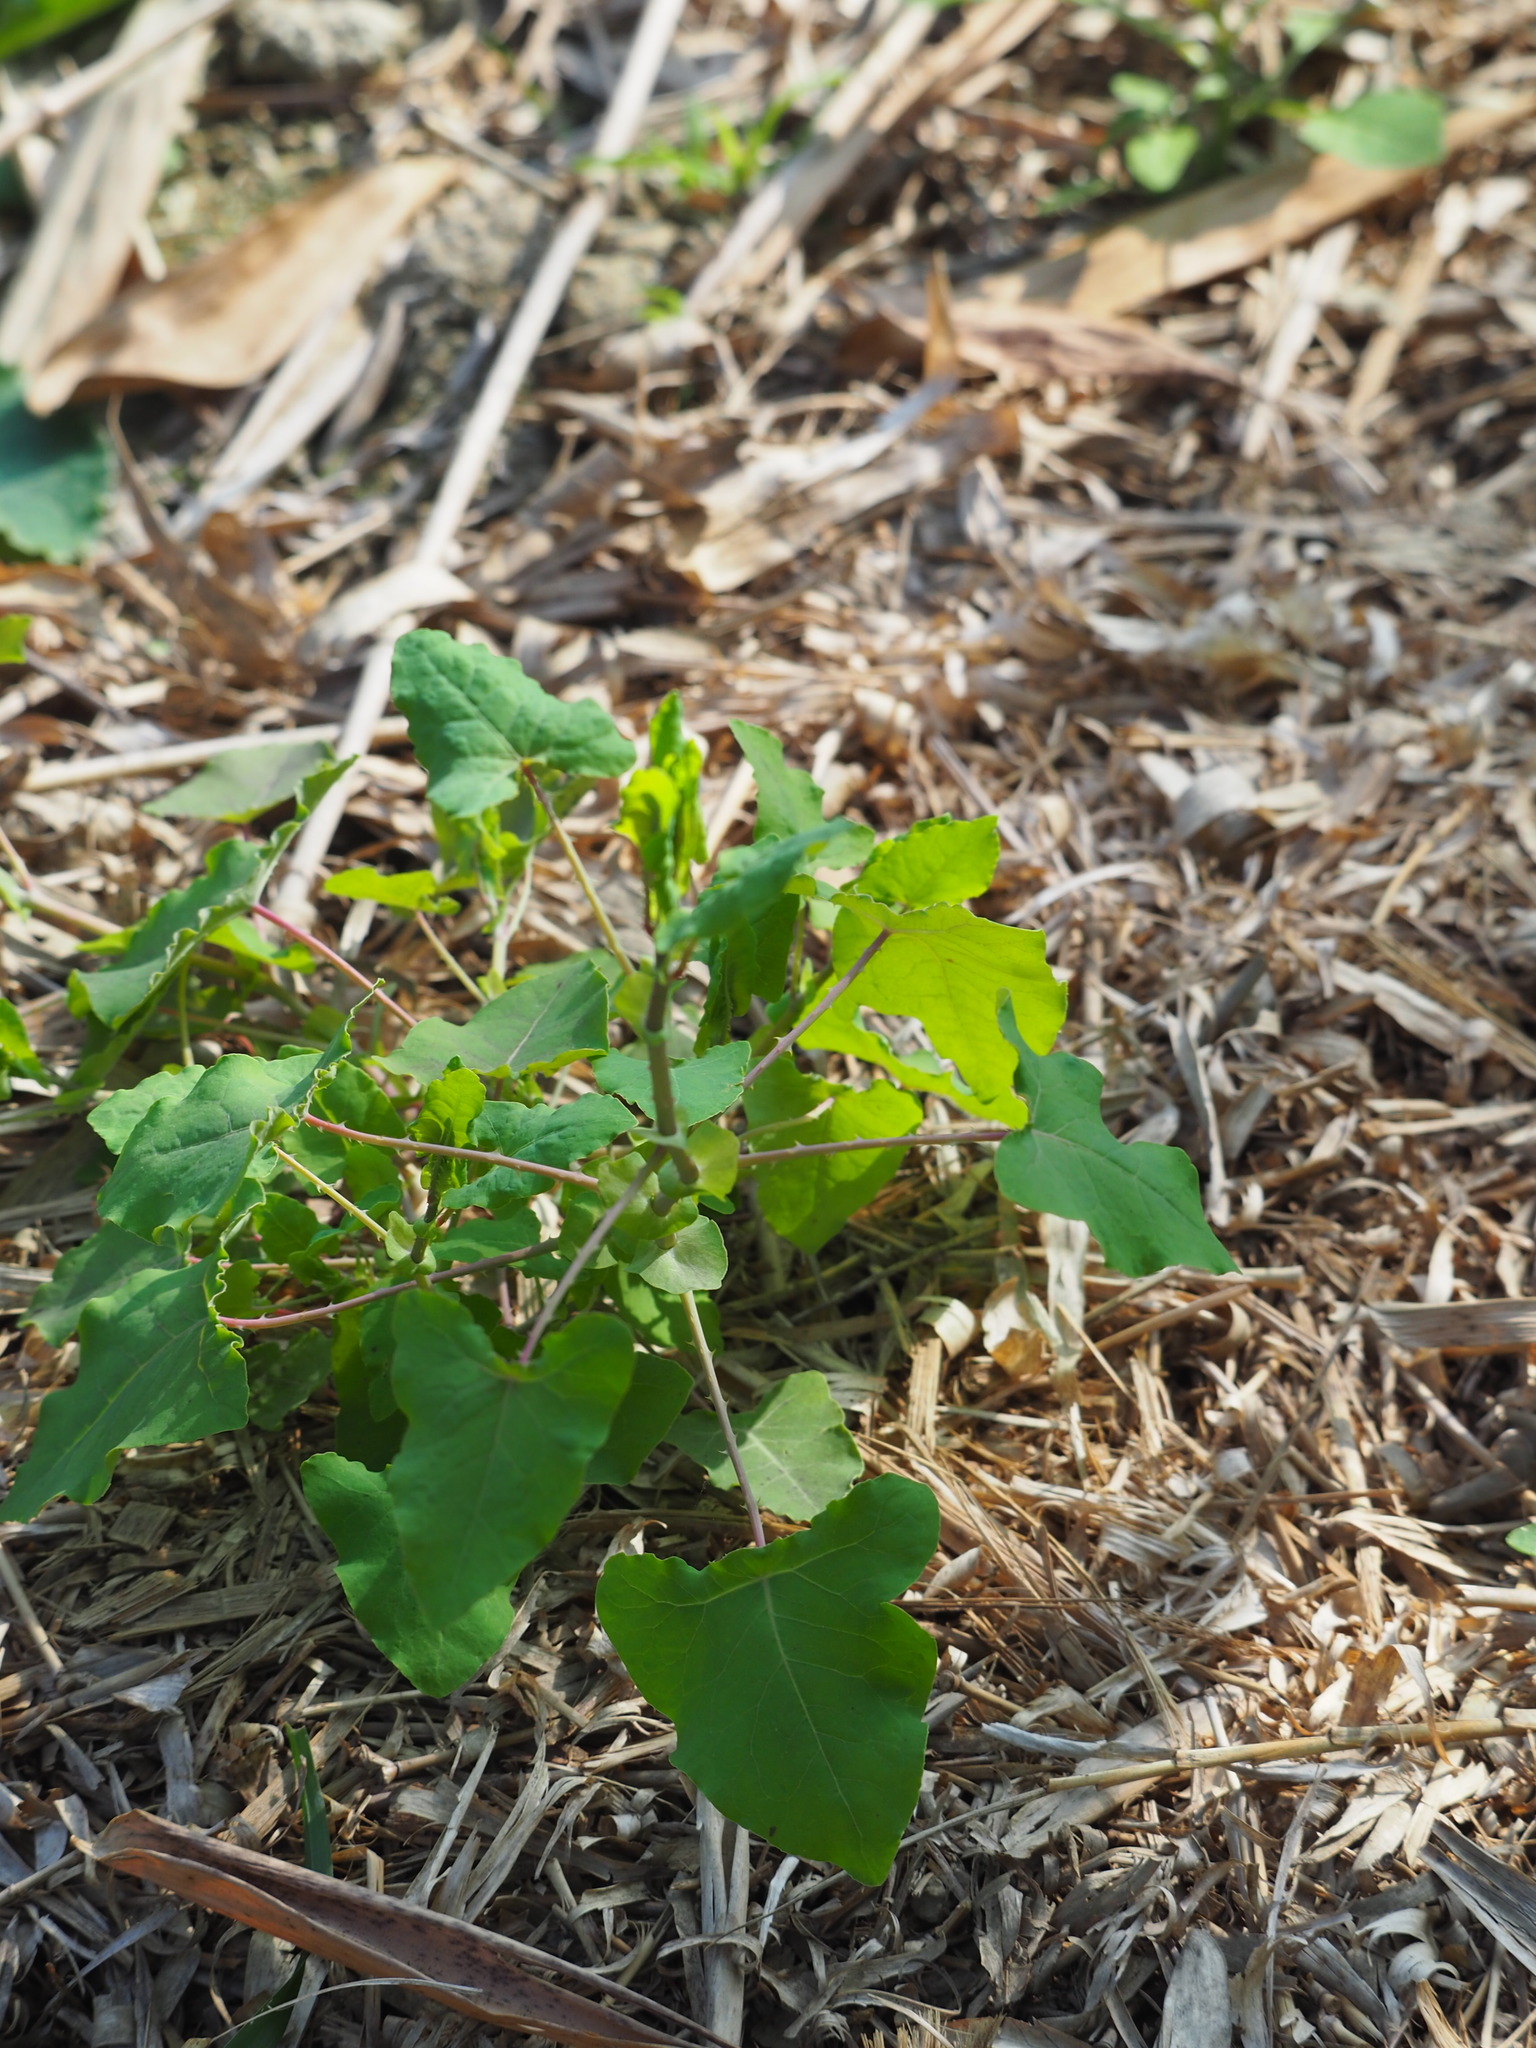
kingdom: Plantae
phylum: Tracheophyta
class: Magnoliopsida
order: Caryophyllales
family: Polygonaceae
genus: Persicaria
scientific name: Persicaria perfoliata
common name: Asiatic tearthumb
